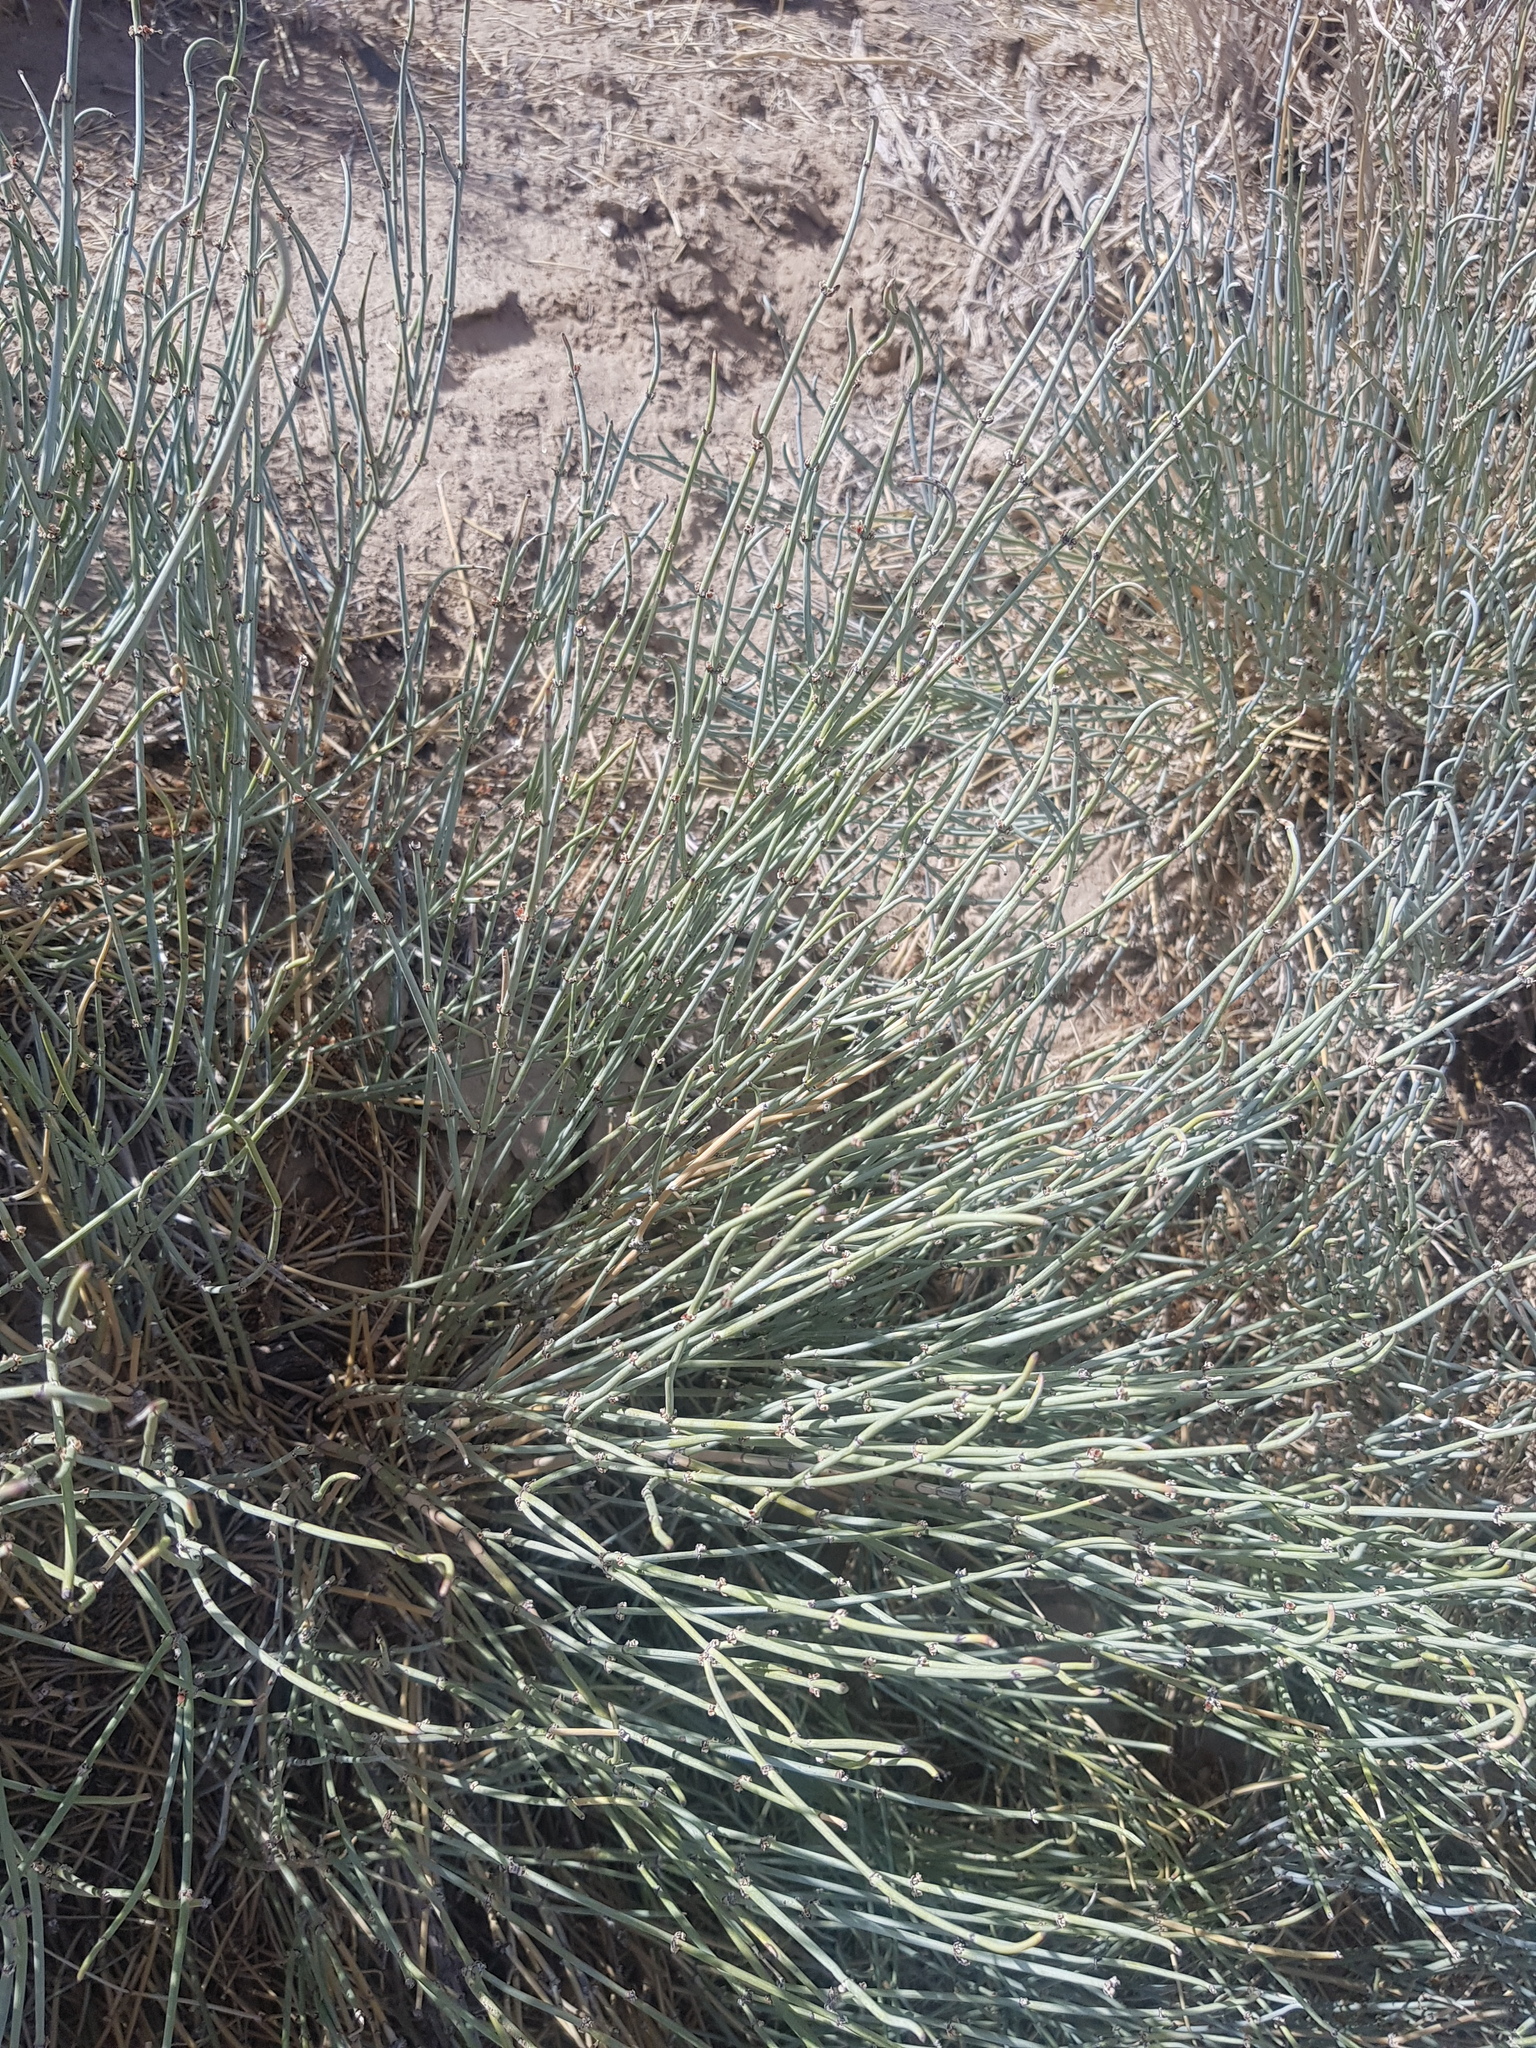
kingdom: Plantae
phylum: Tracheophyta
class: Gnetopsida
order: Ephedrales
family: Ephedraceae
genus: Ephedra
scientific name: Ephedra equisetina
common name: Mongolian ephedra
